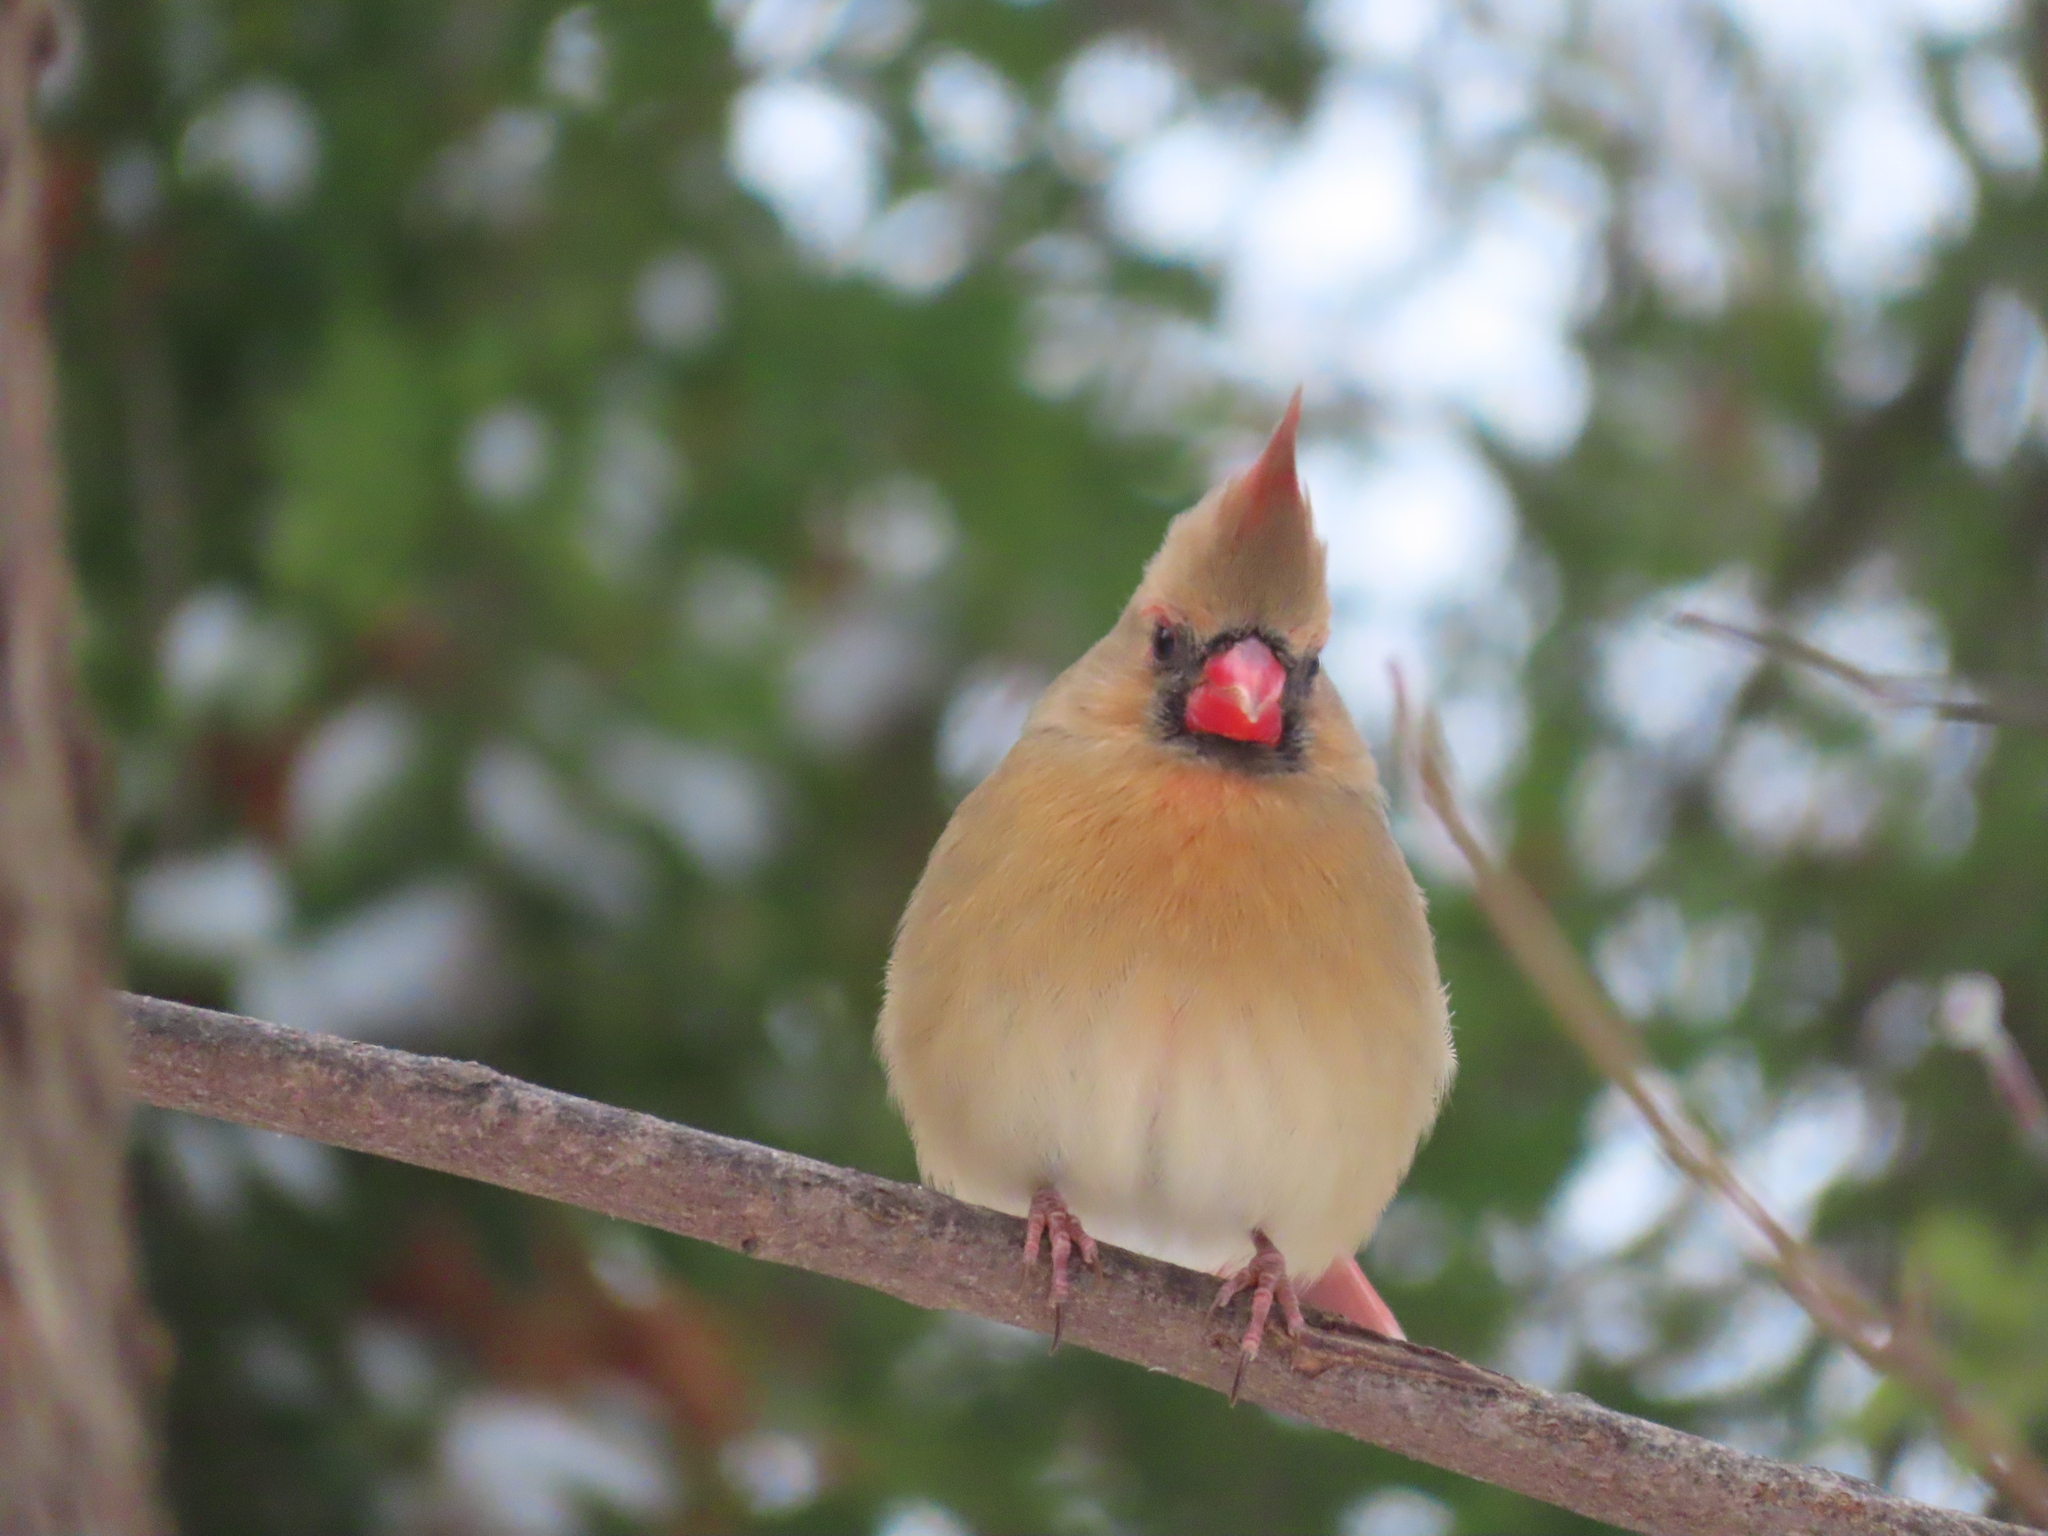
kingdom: Animalia
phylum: Chordata
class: Aves
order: Passeriformes
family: Cardinalidae
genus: Cardinalis
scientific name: Cardinalis cardinalis
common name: Northern cardinal
